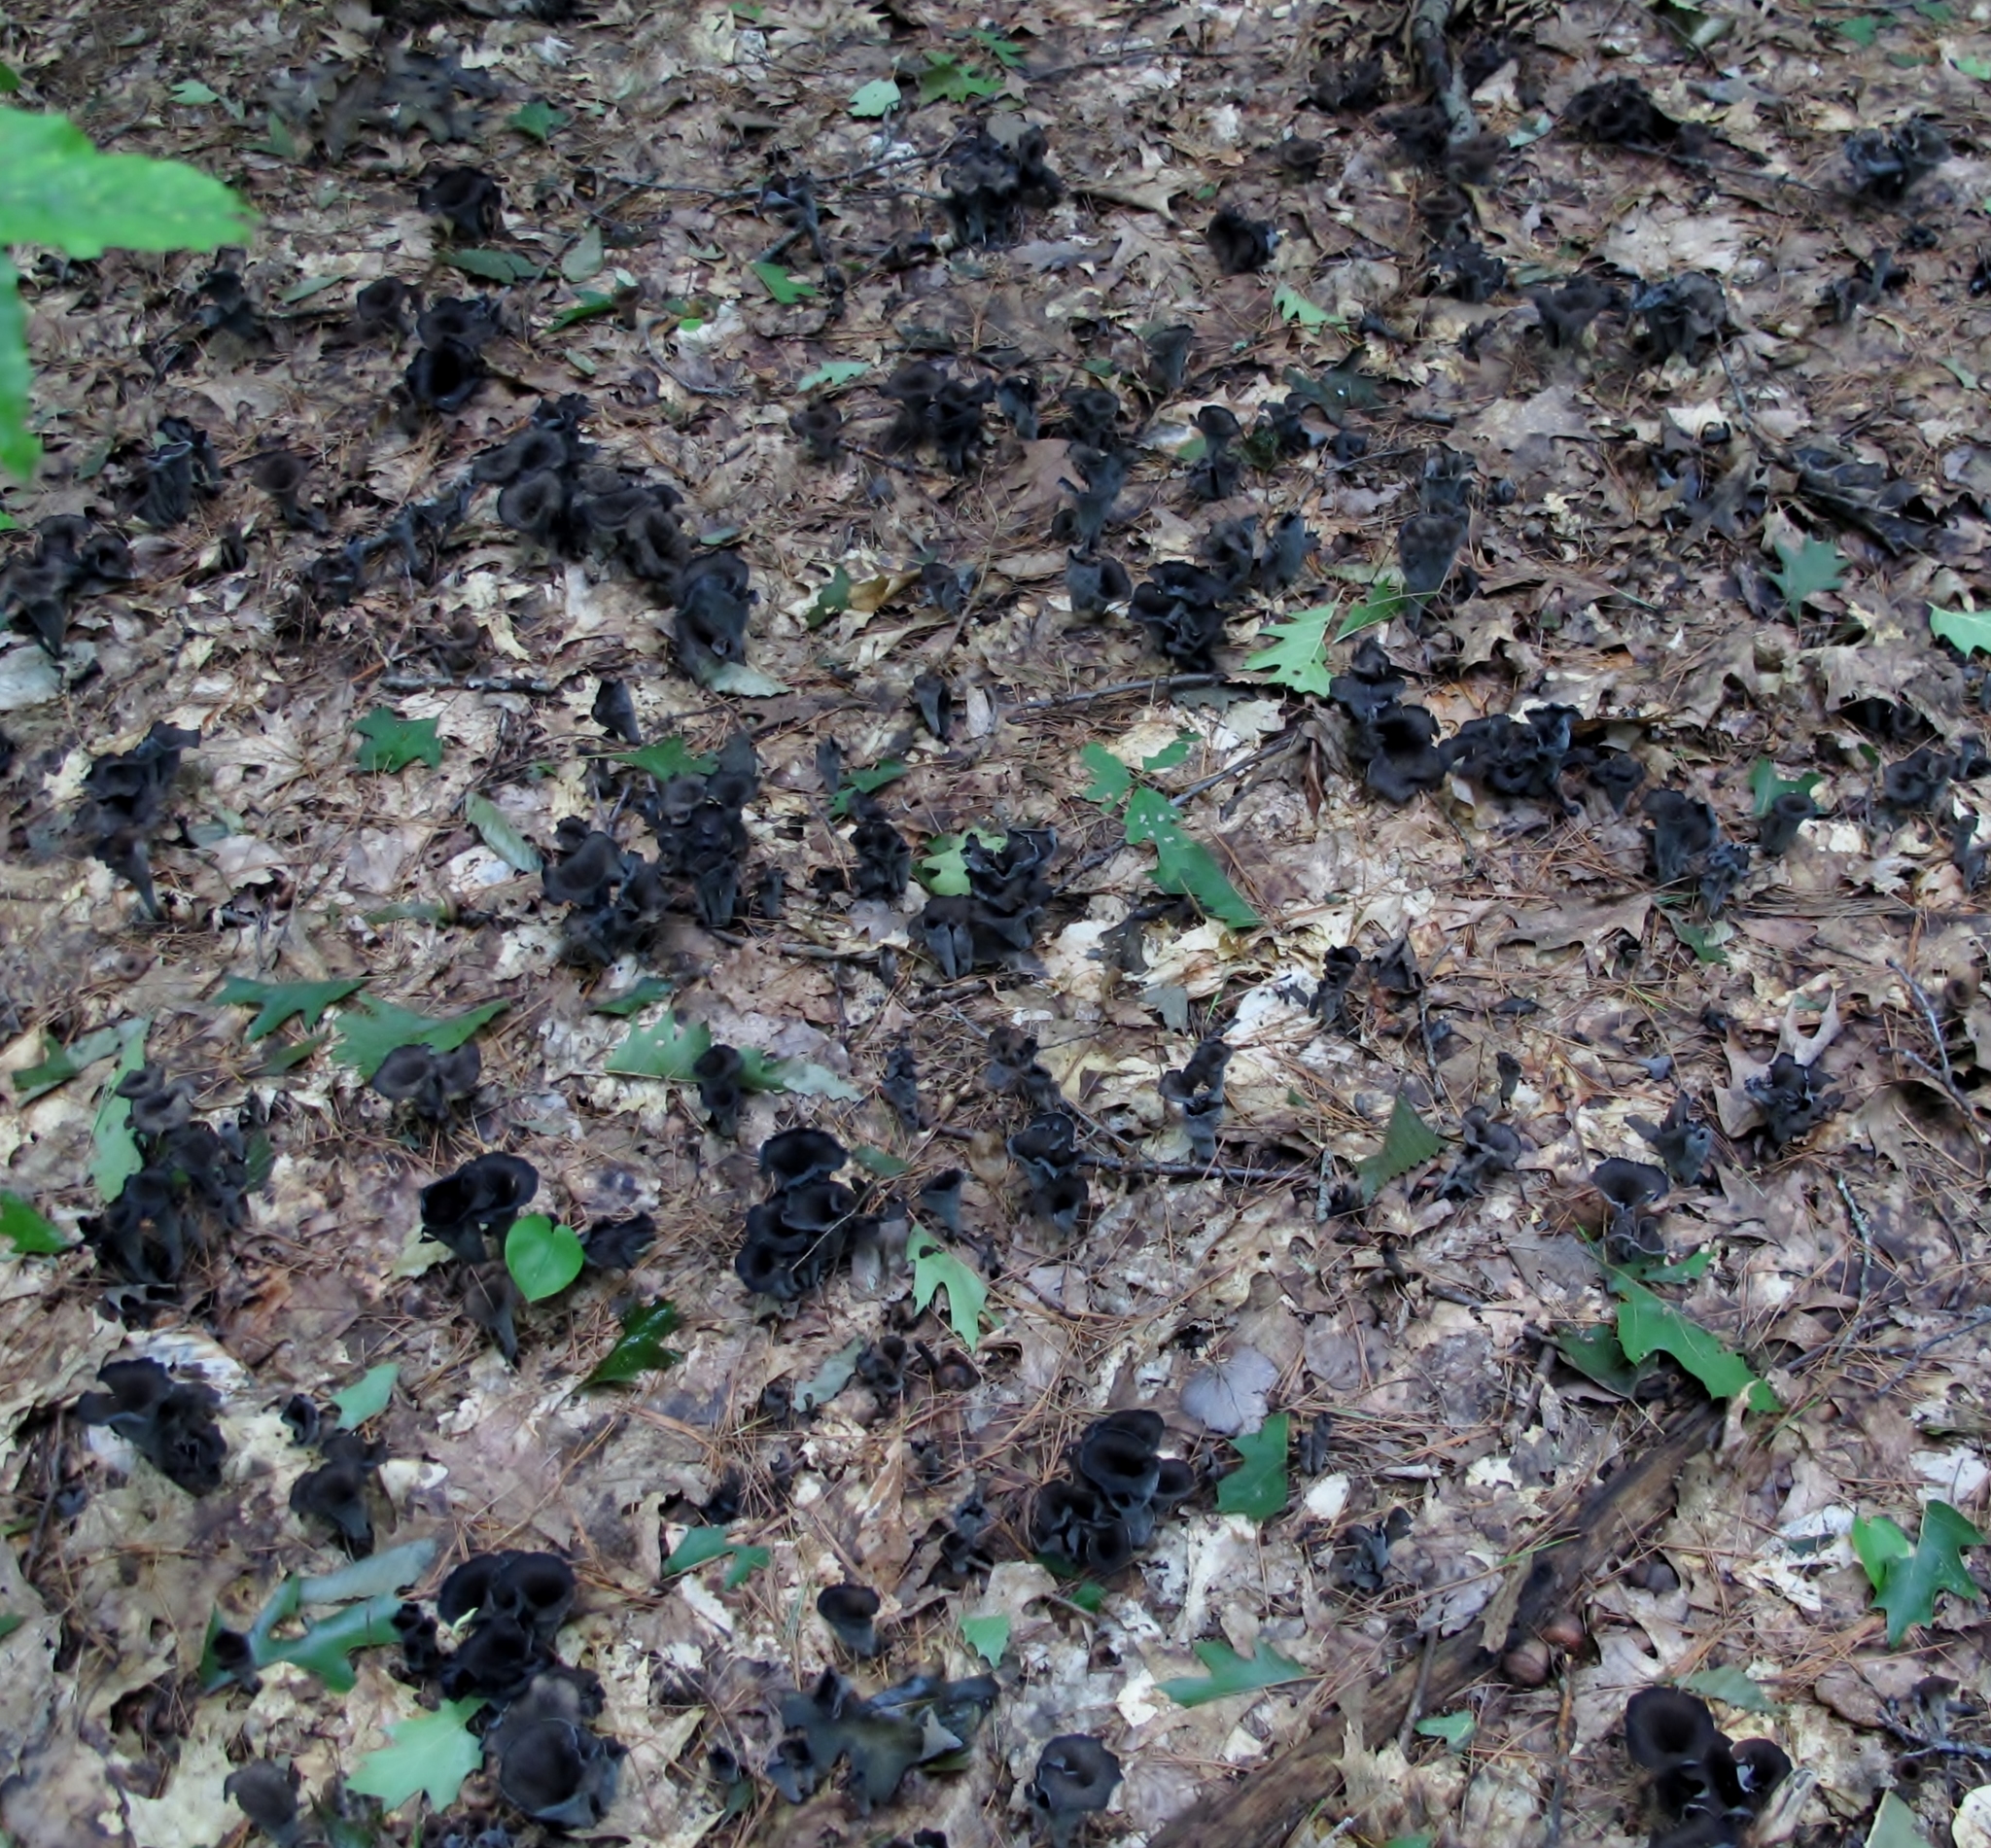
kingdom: Fungi
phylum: Basidiomycota
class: Agaricomycetes
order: Cantharellales
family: Hydnaceae
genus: Craterellus
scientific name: Craterellus cornucopioides
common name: Horn of plenty
